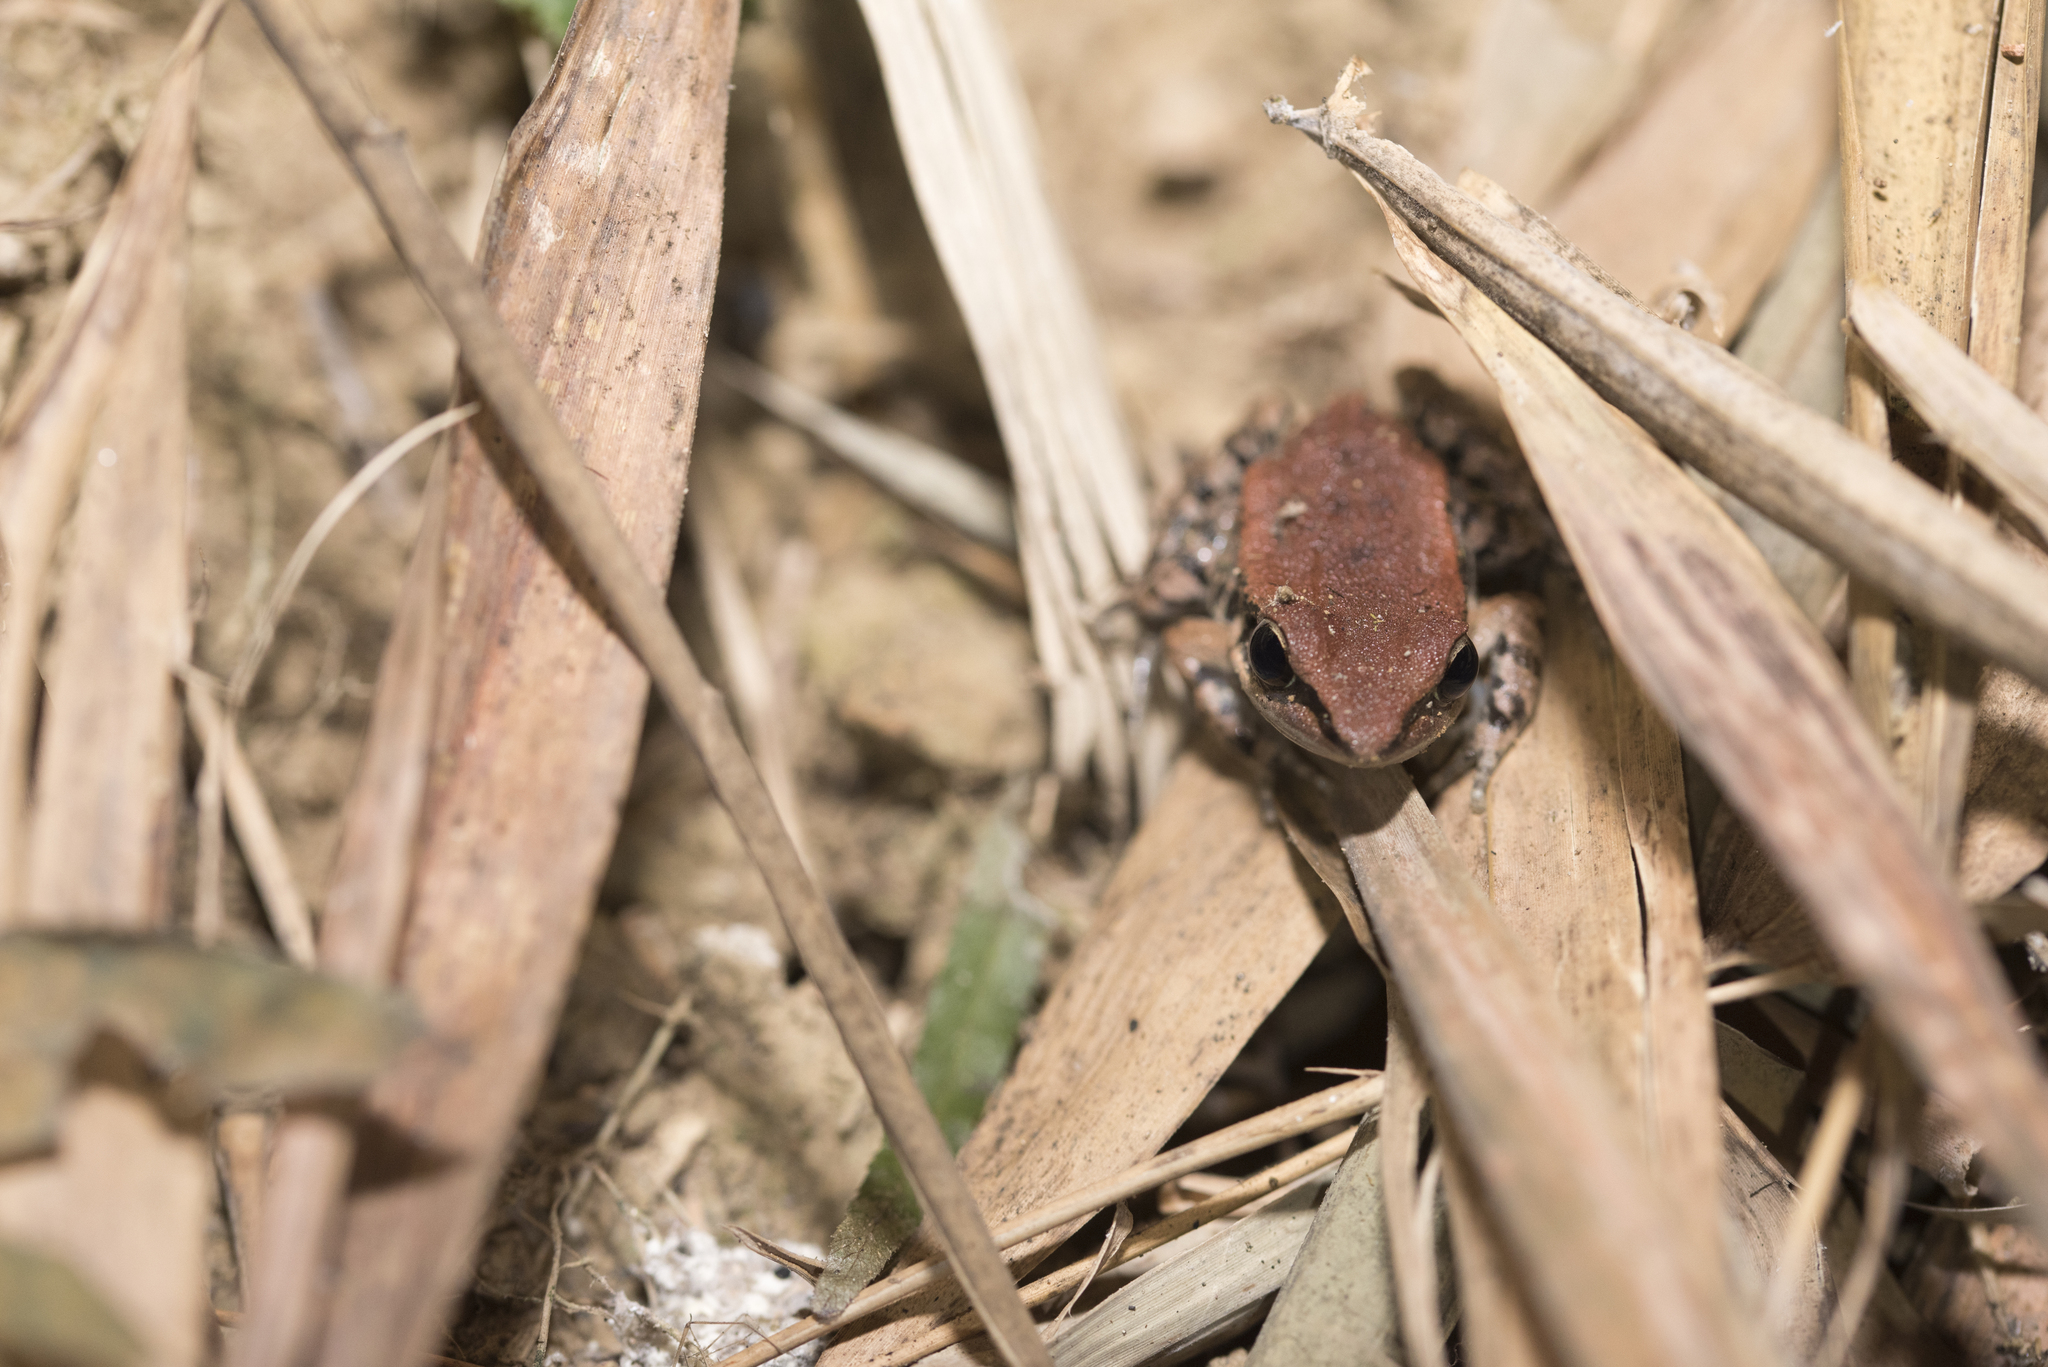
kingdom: Animalia
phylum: Chordata
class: Amphibia
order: Anura
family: Ranidae
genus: Hylarana
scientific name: Hylarana latouchii
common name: Broad-folded frog
